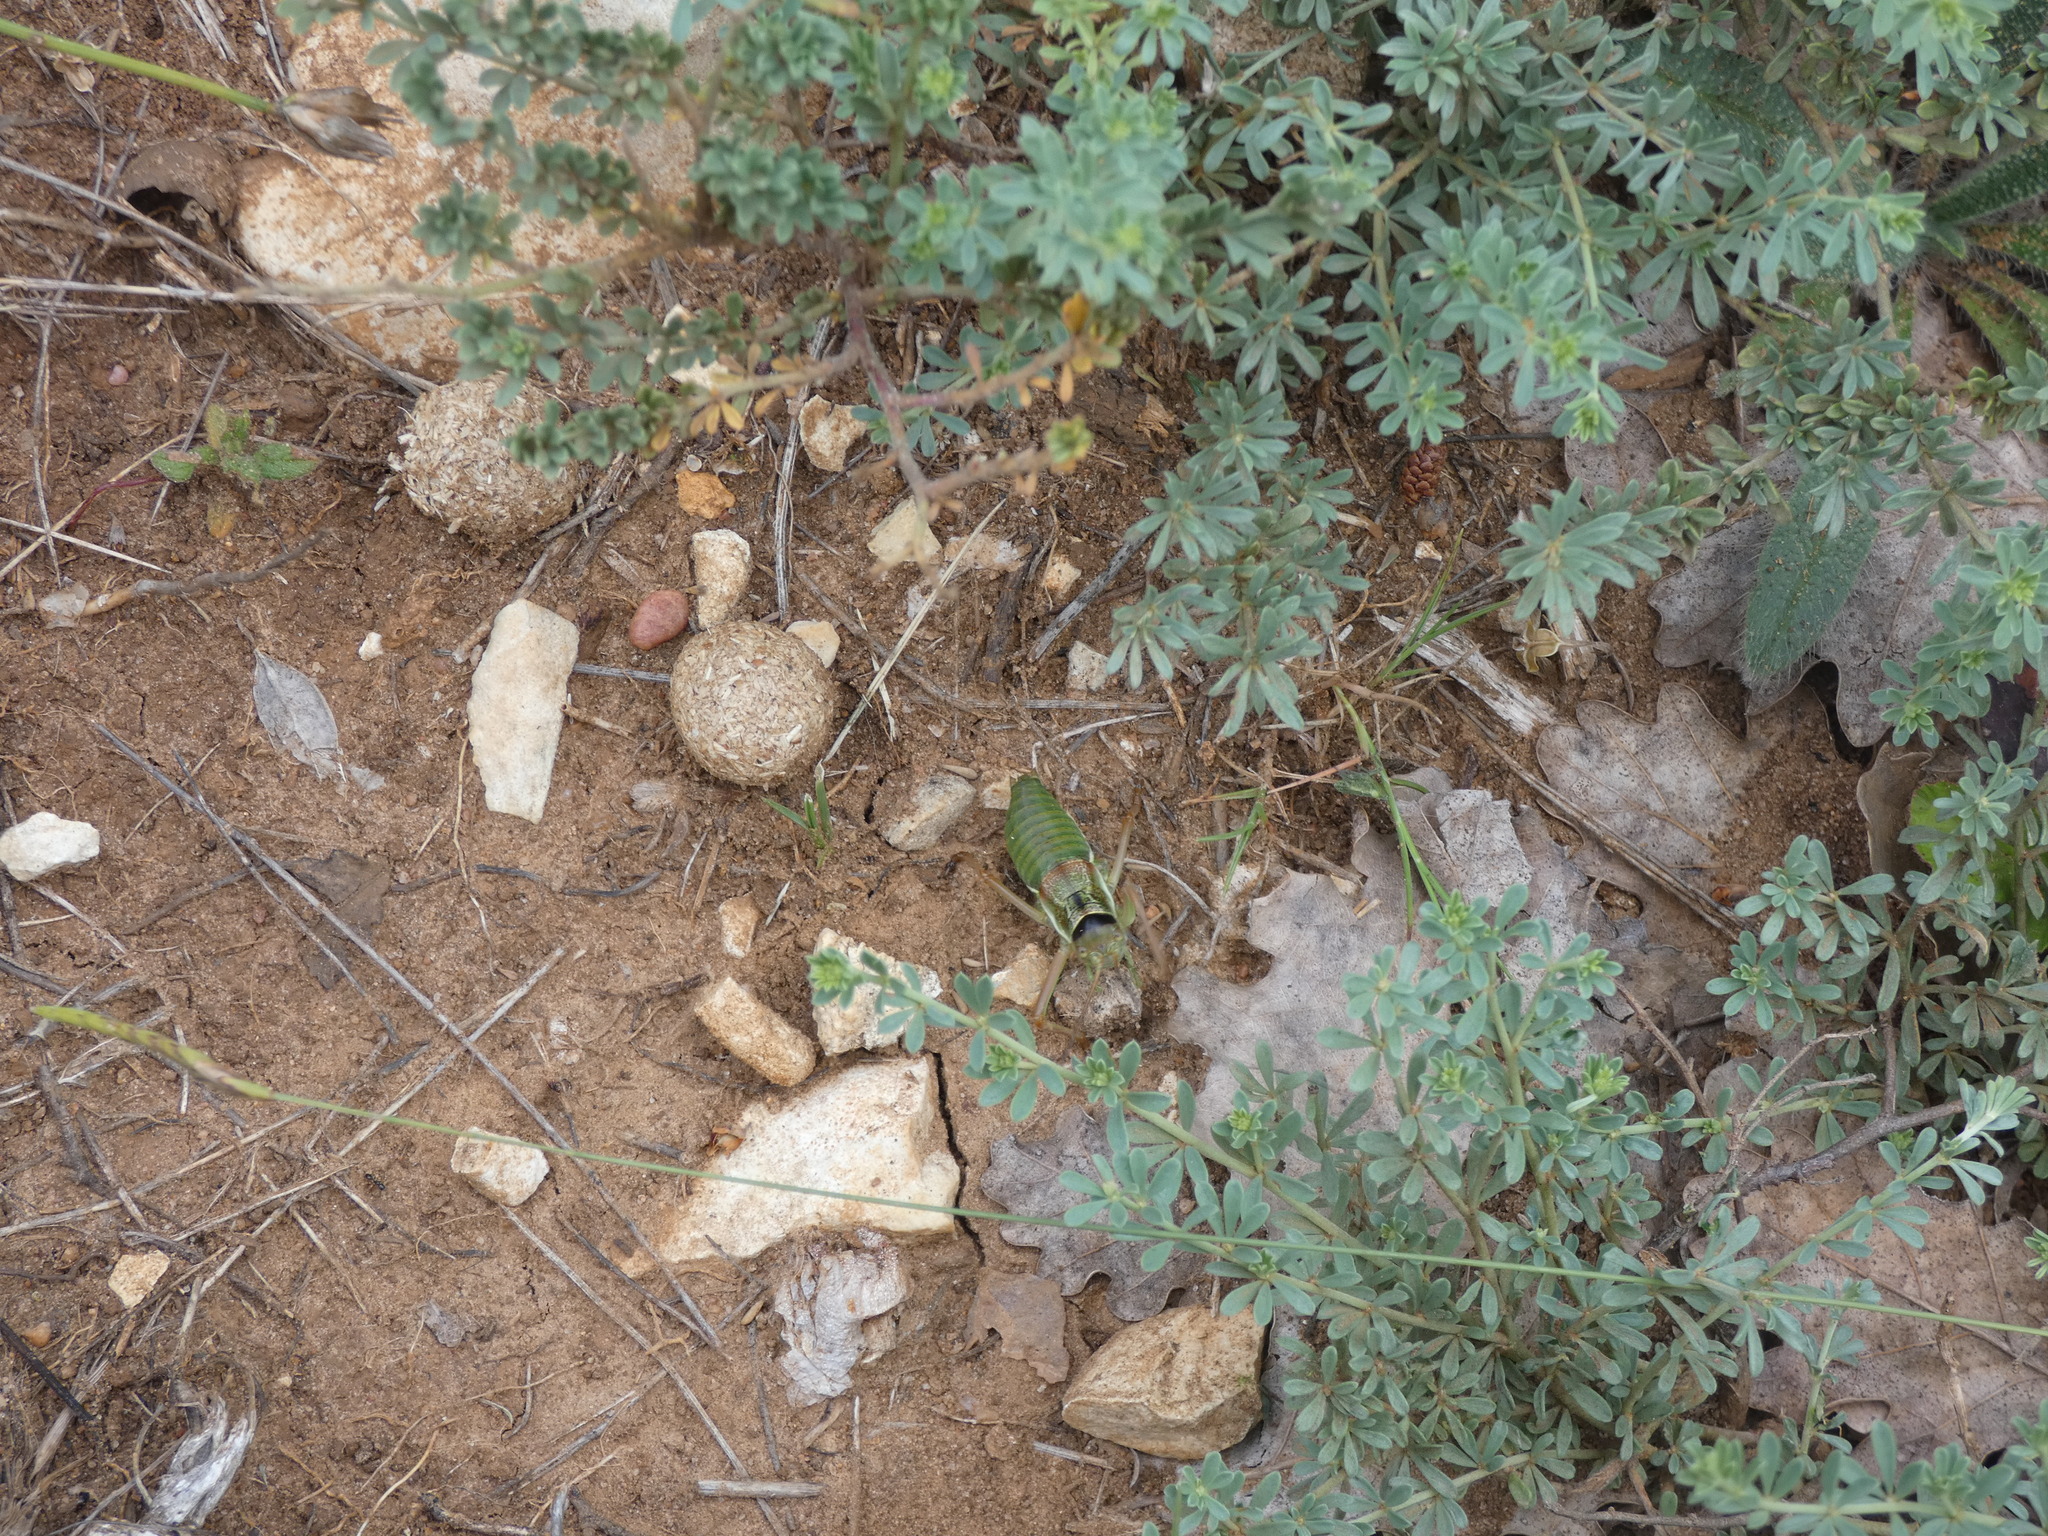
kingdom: Animalia
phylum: Arthropoda
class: Insecta
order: Orthoptera
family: Tettigoniidae
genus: Ephippiger
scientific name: Ephippiger diurnus
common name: Western saddle bush-cricket
